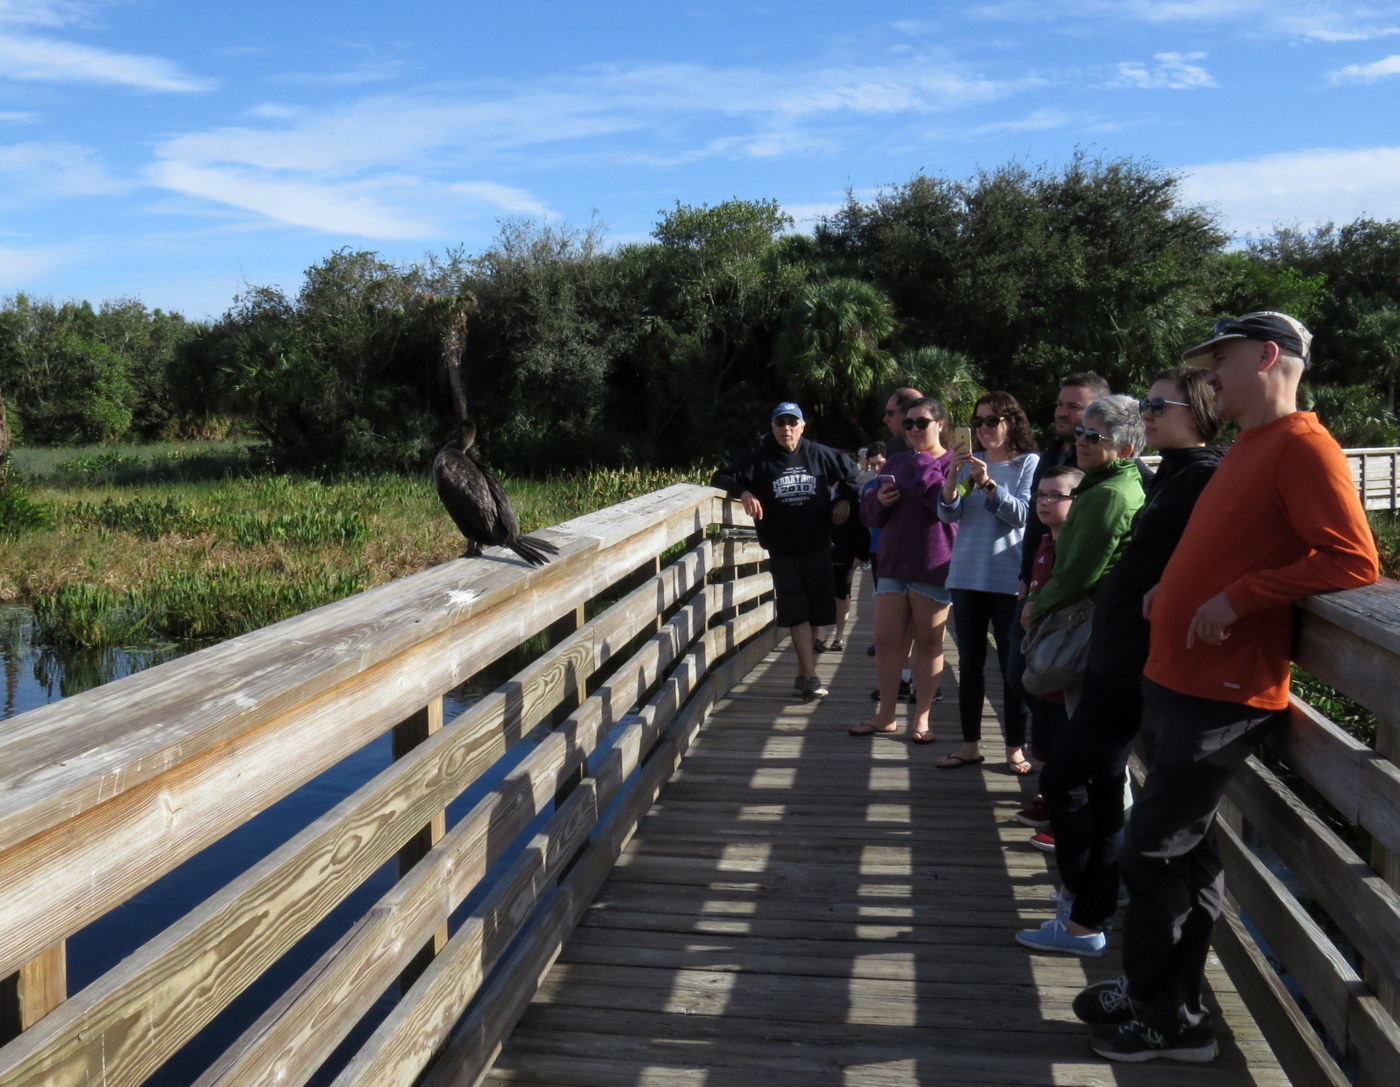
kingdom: Animalia
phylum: Chordata
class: Aves
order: Suliformes
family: Phalacrocoracidae
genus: Phalacrocorax
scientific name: Phalacrocorax auritus
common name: Double-crested cormorant
